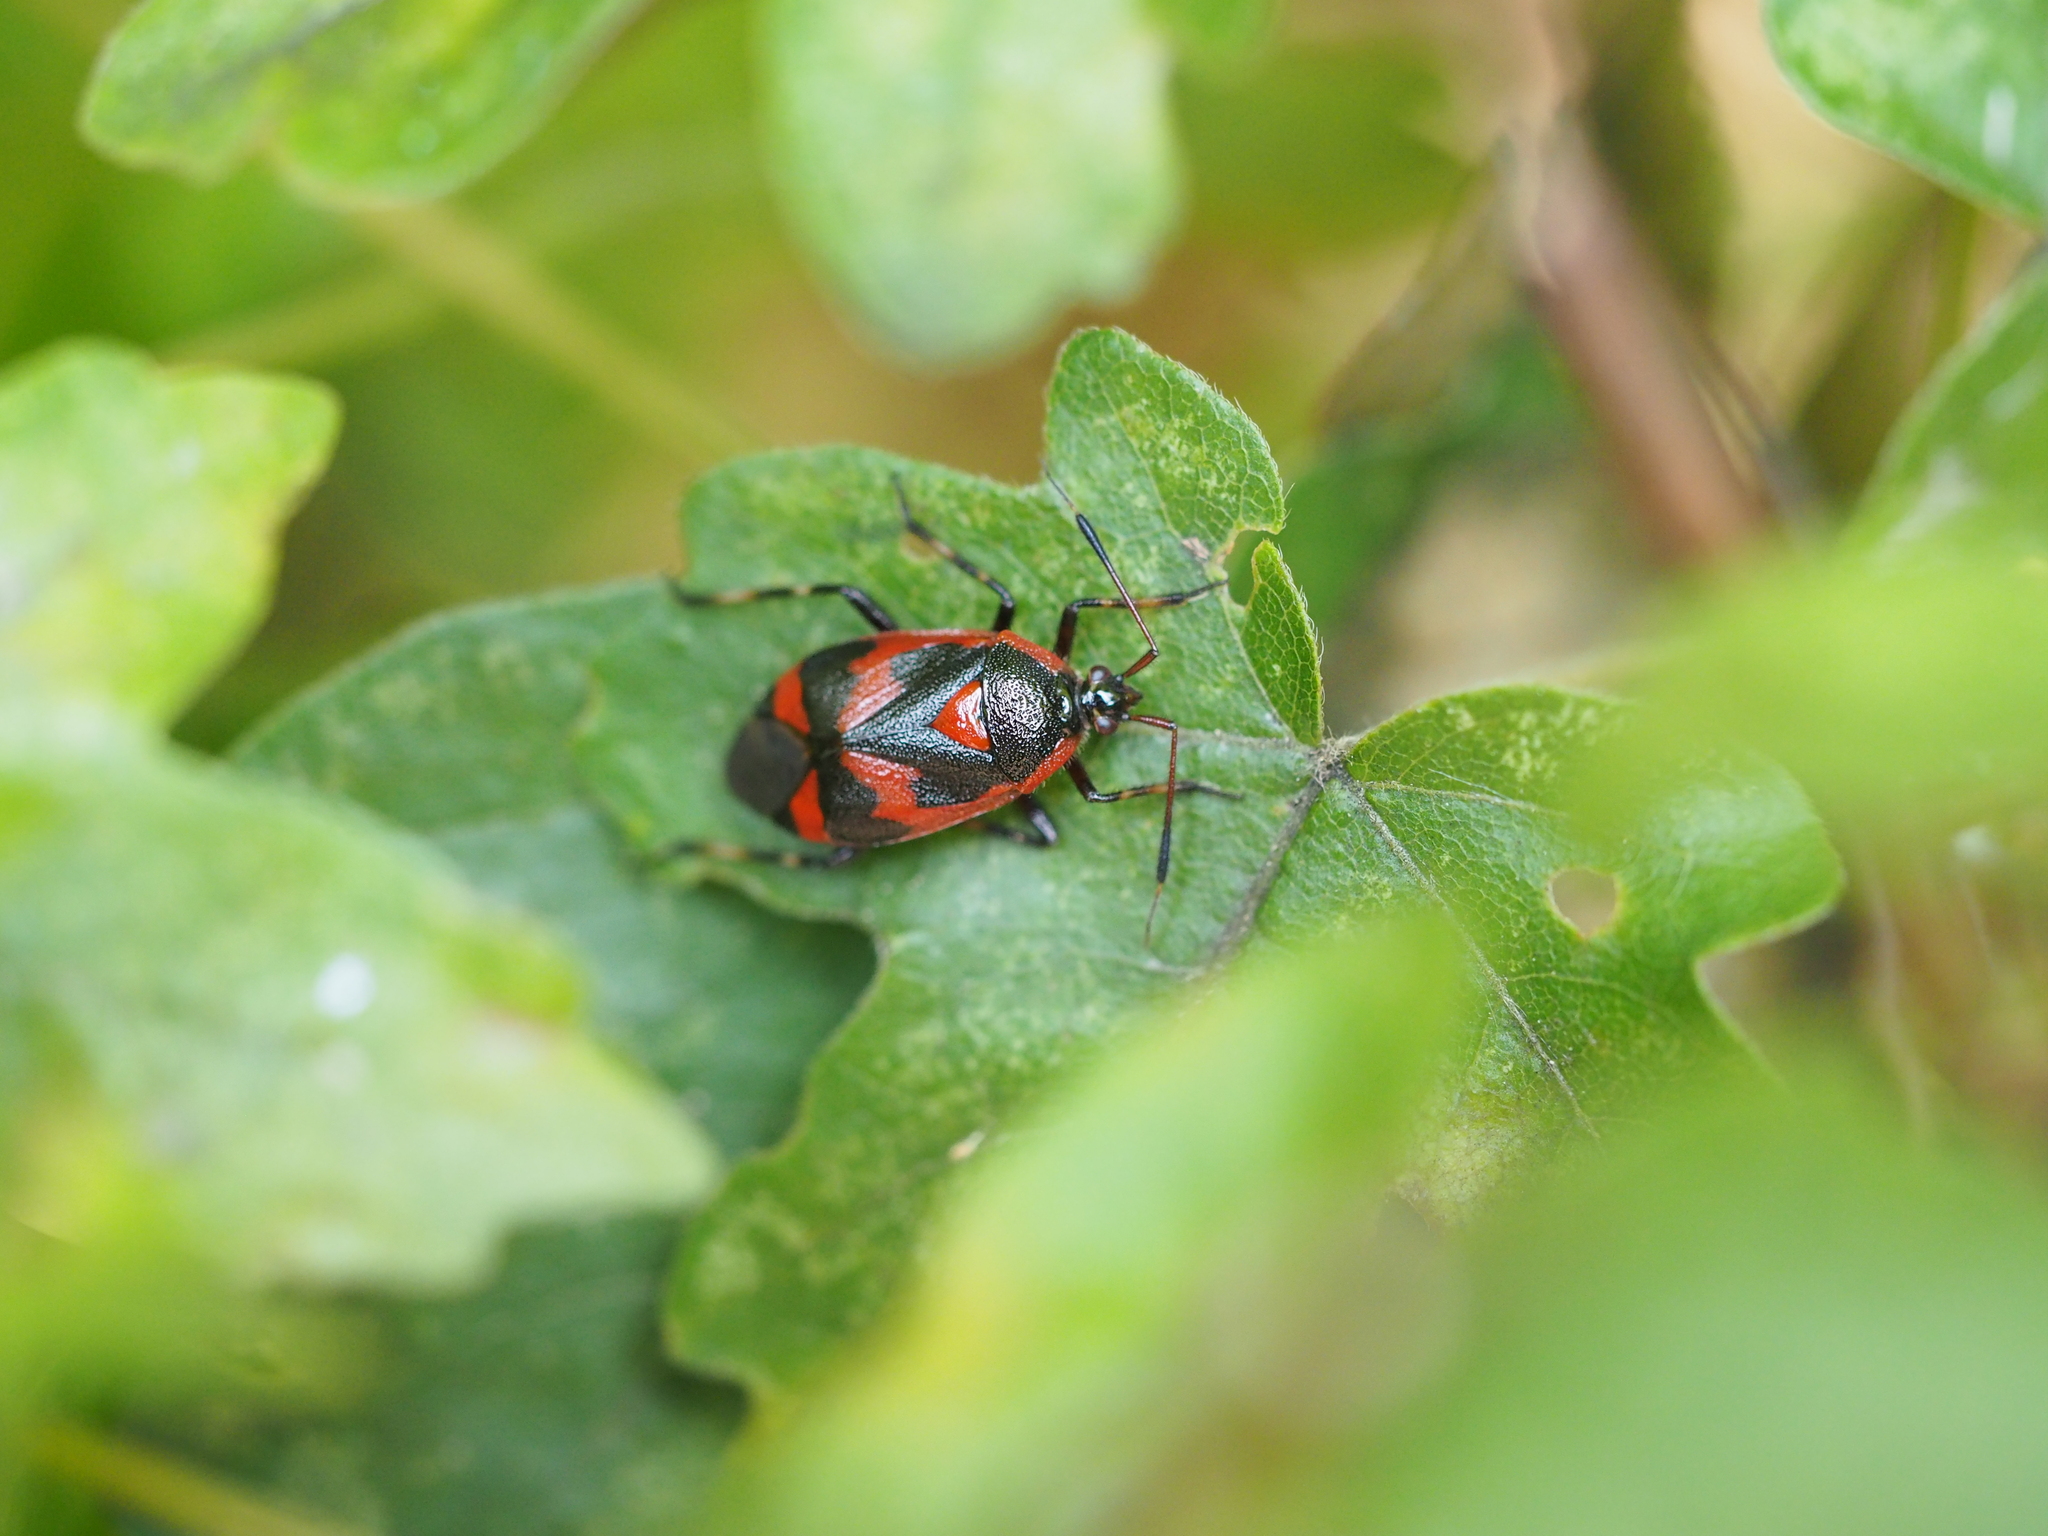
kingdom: Animalia
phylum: Arthropoda
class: Insecta
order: Hemiptera
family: Miridae
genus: Deraeocoris
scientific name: Deraeocoris trifasciatus
